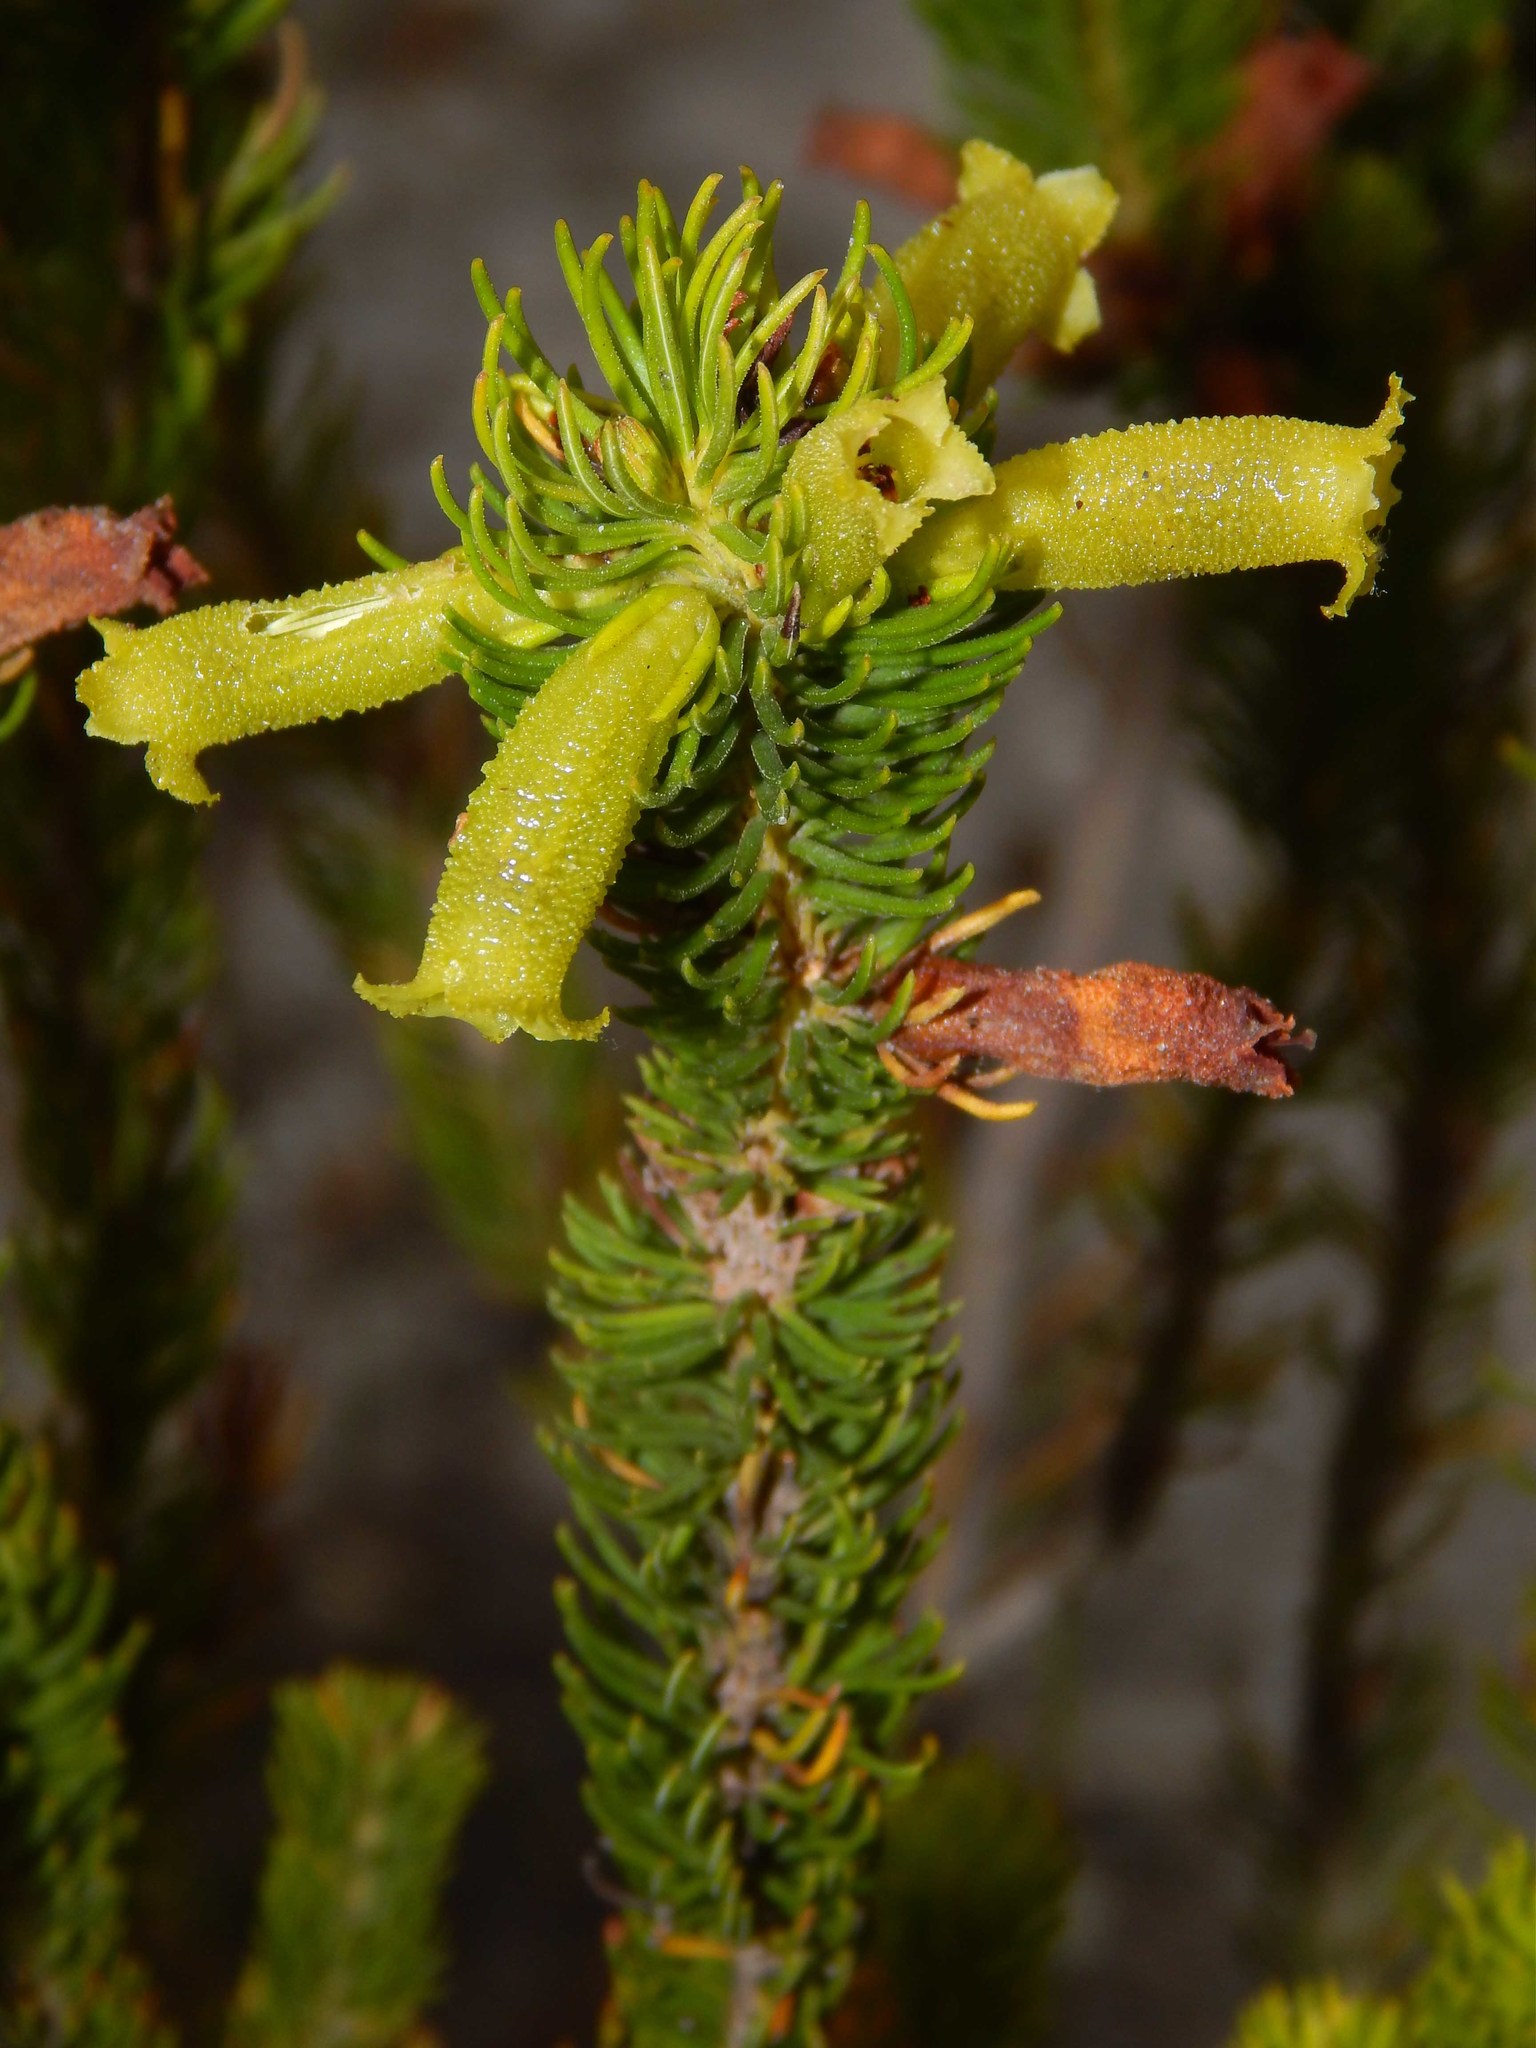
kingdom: Plantae
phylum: Tracheophyta
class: Magnoliopsida
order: Ericales
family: Ericaceae
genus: Erica
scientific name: Erica viscaria
